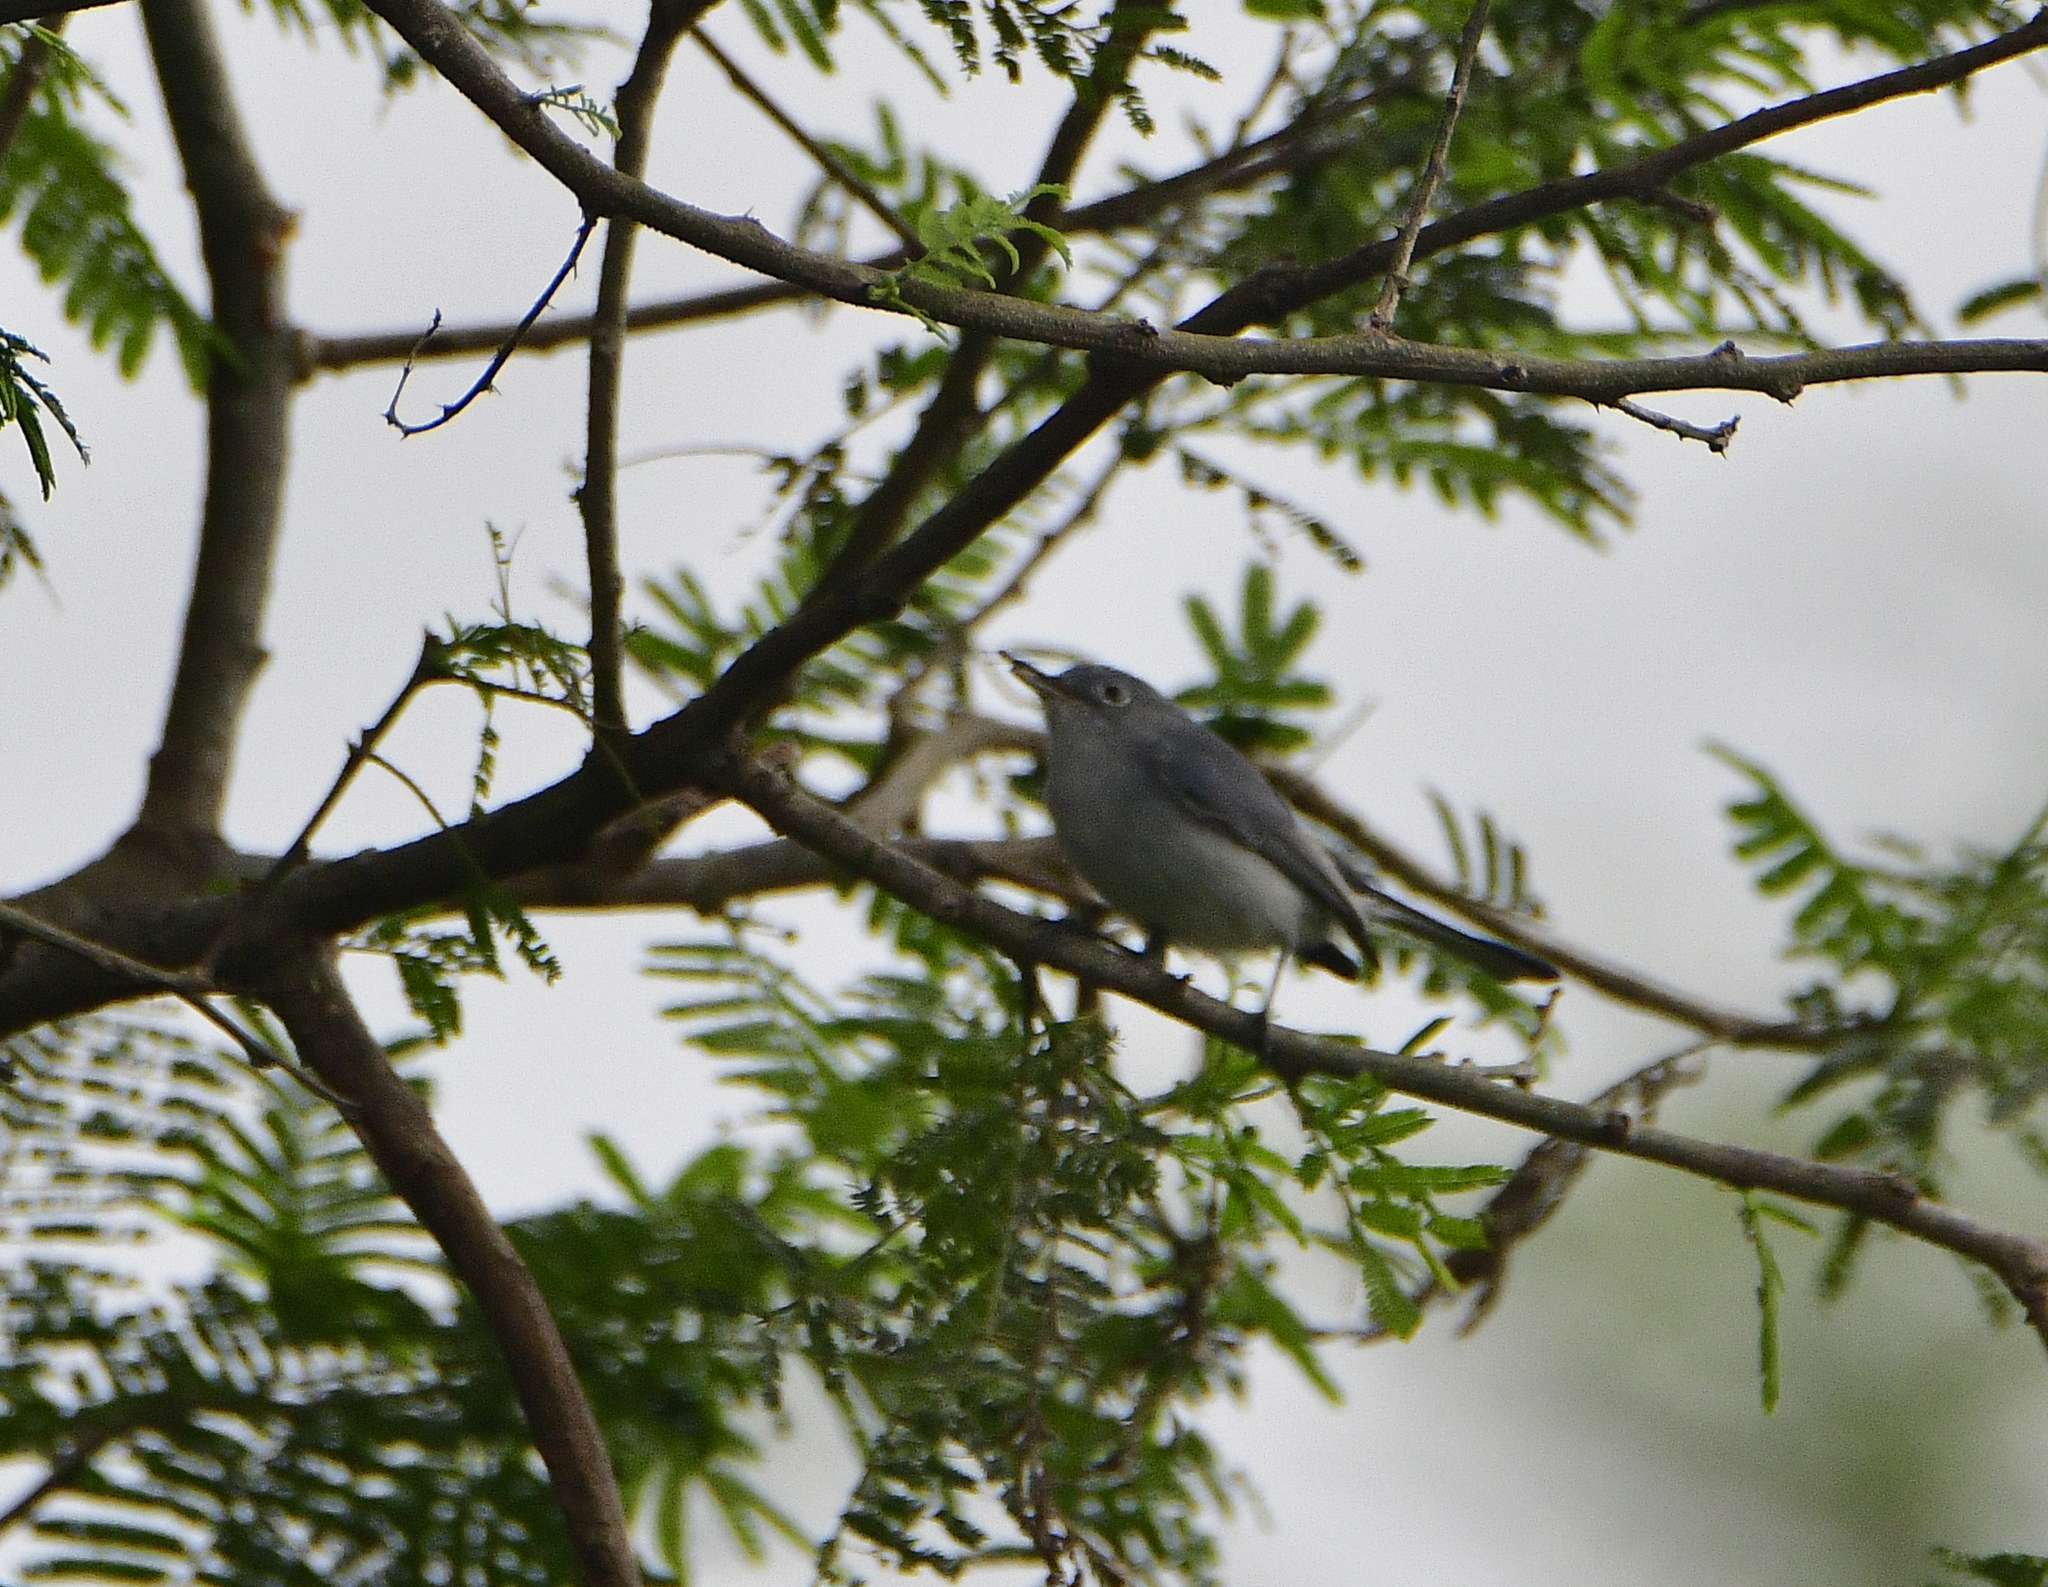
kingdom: Animalia
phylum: Chordata
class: Aves
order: Passeriformes
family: Polioptilidae
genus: Polioptila
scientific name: Polioptila caerulea
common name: Blue-gray gnatcatcher
